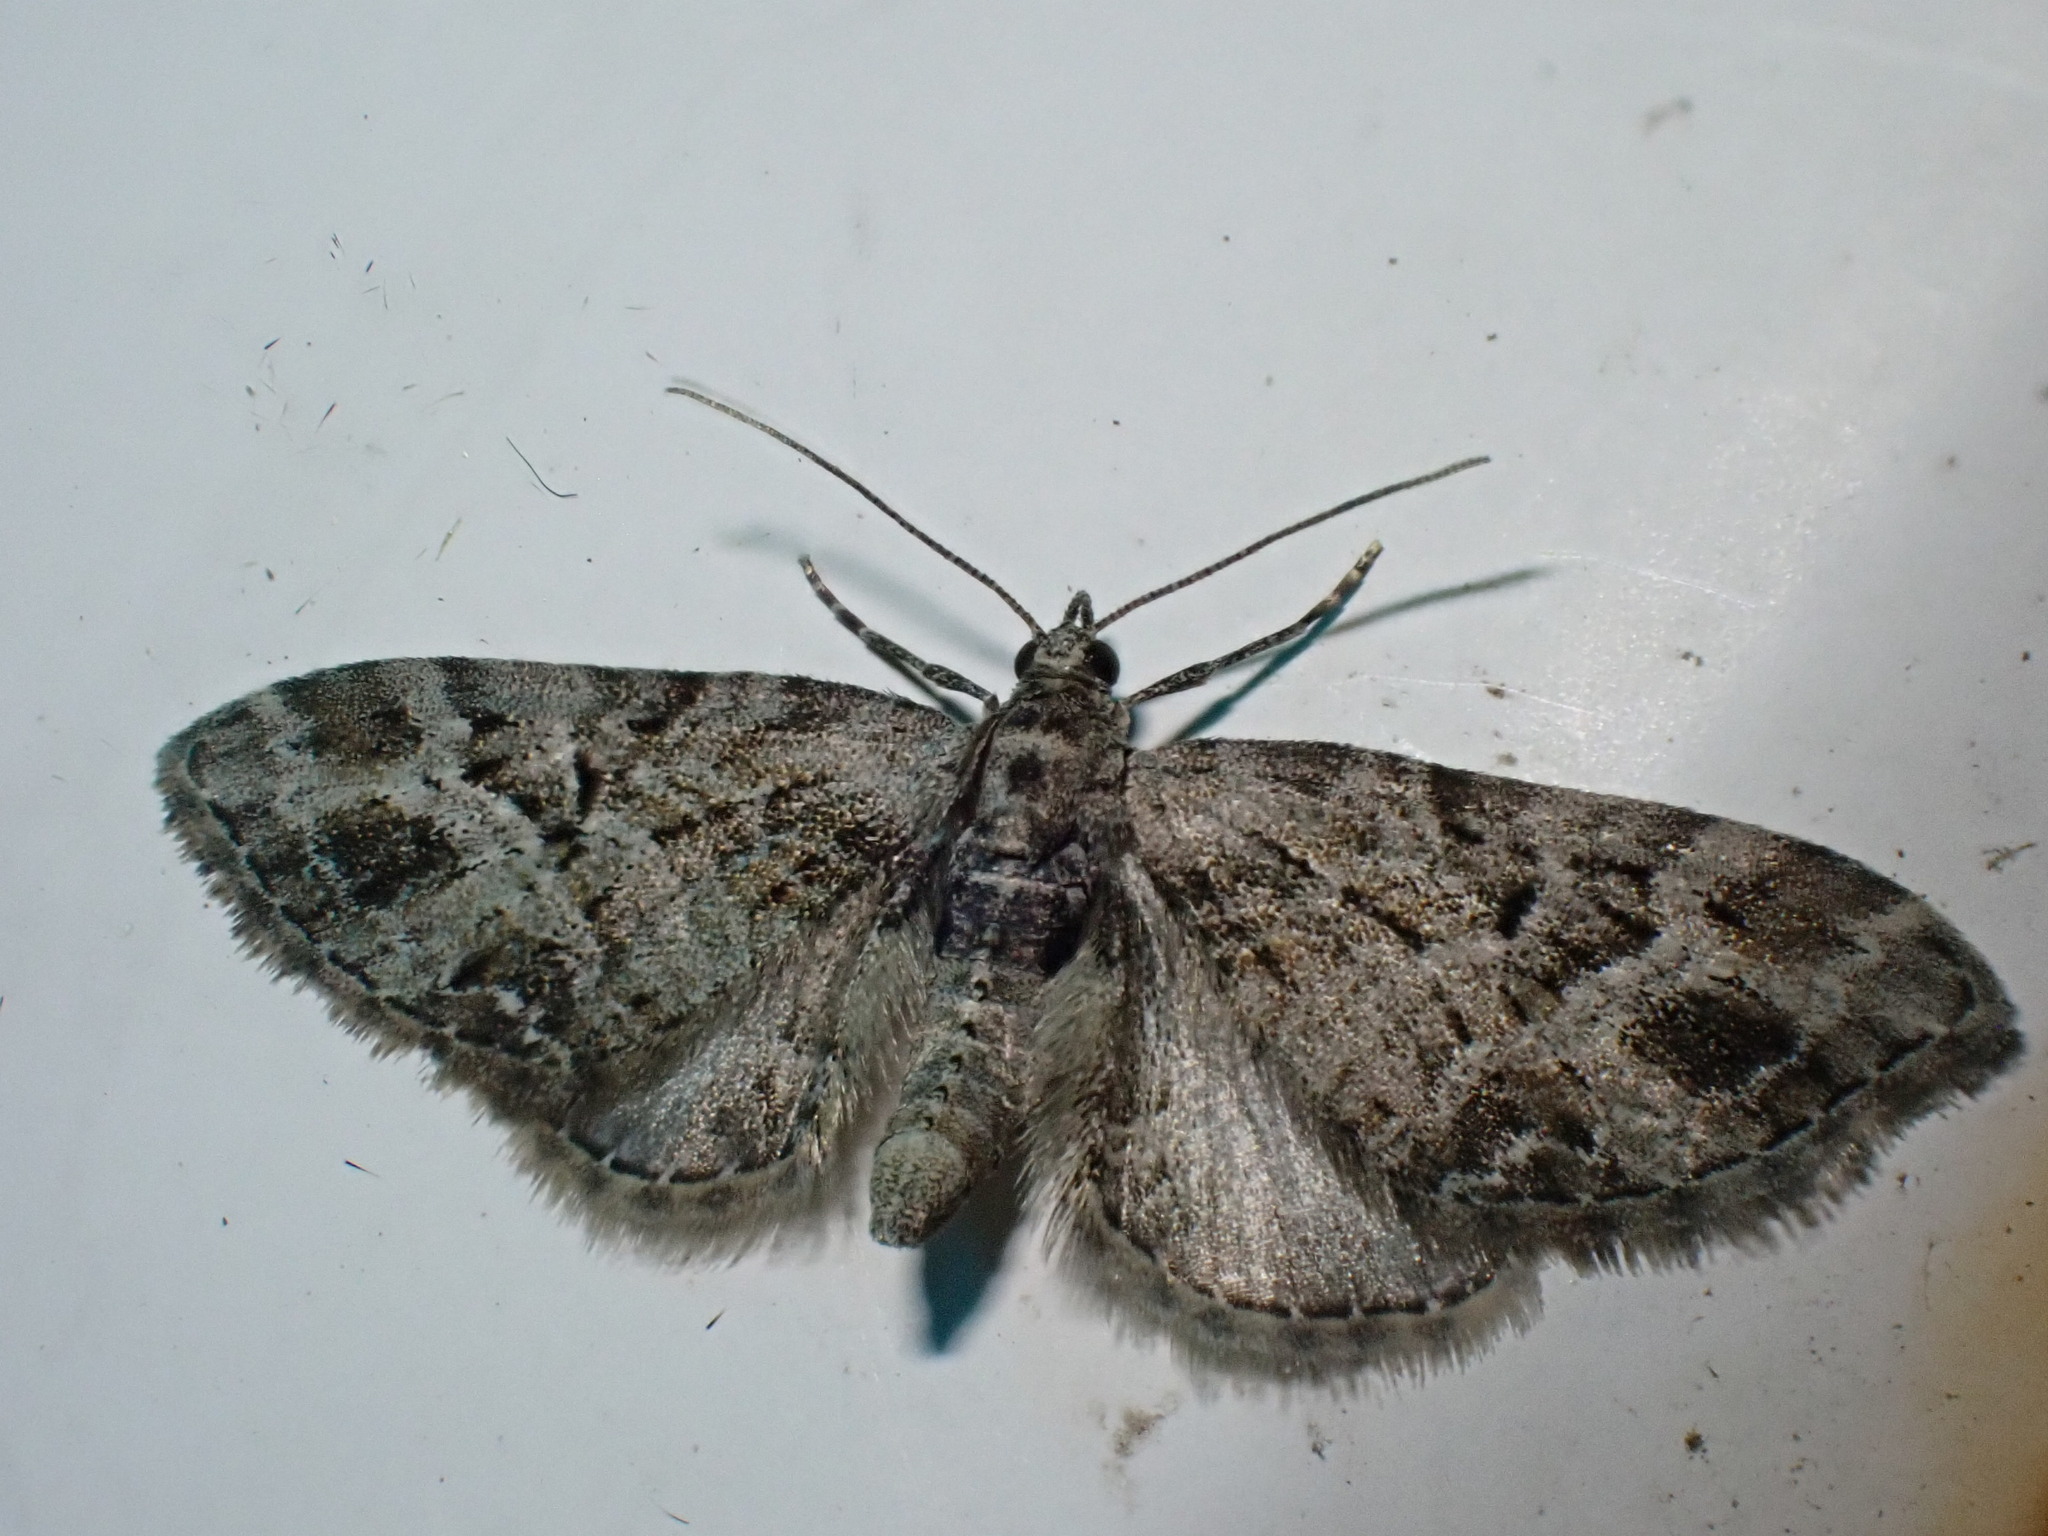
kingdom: Animalia
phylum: Arthropoda
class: Insecta
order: Lepidoptera
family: Geometridae
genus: Eupithecia
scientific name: Eupithecia exiguata
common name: Mottled pug
